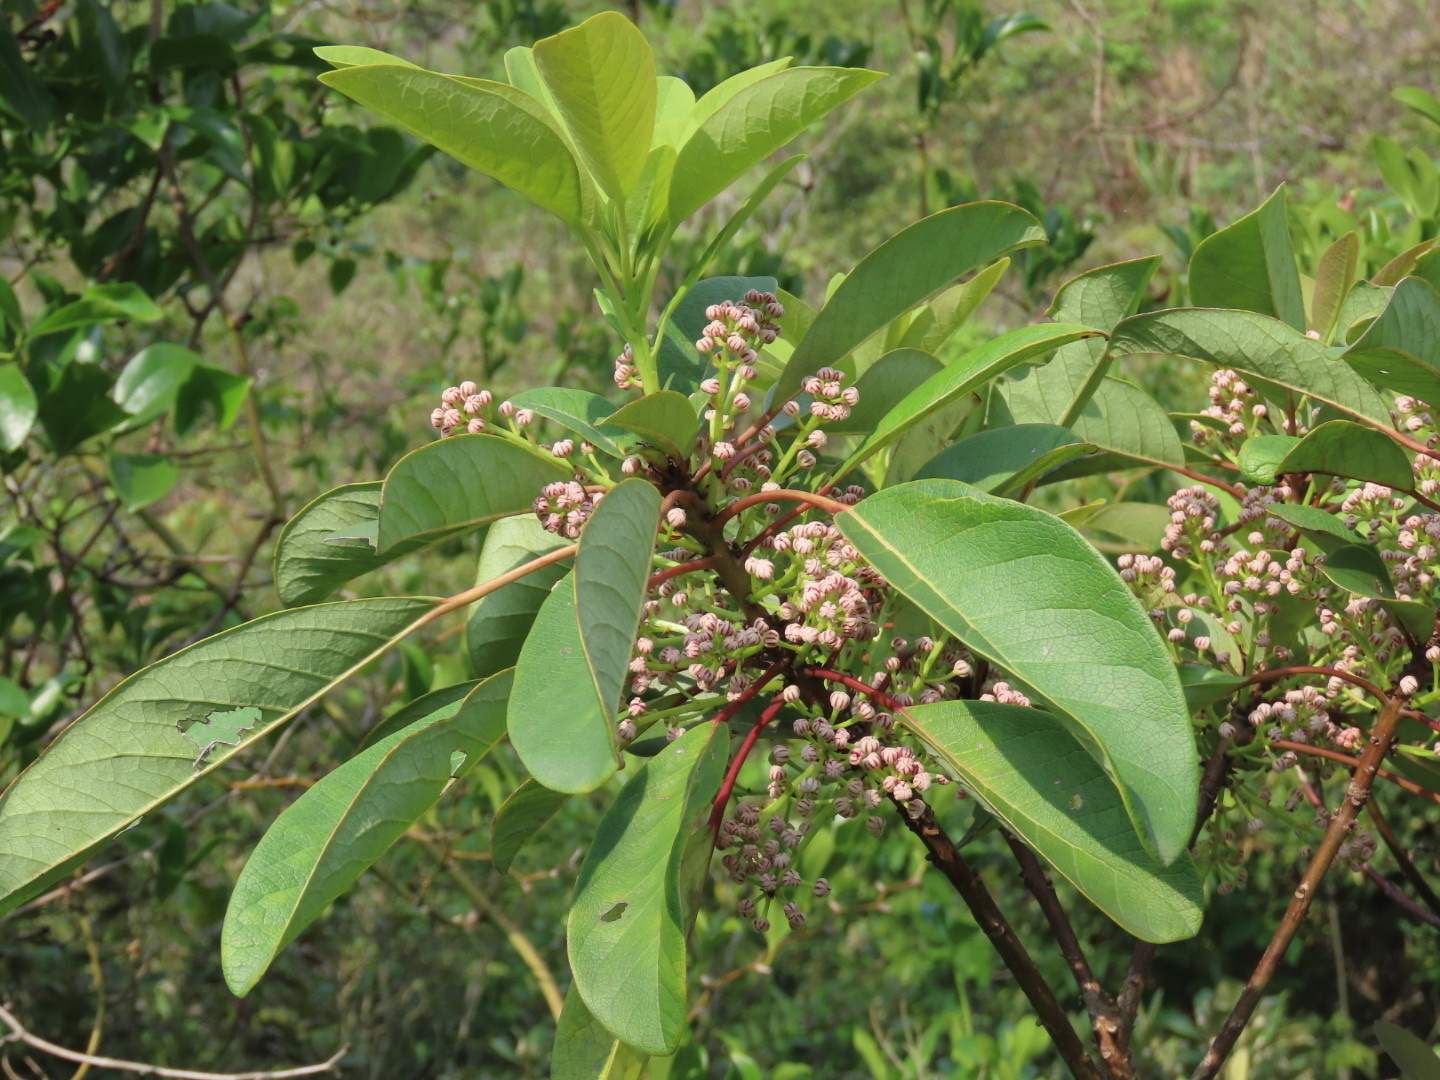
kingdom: Plantae
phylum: Tracheophyta
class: Magnoliopsida
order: Saxifragales
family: Daphniphyllaceae
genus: Daphniphyllum
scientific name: Daphniphyllum calycinum
